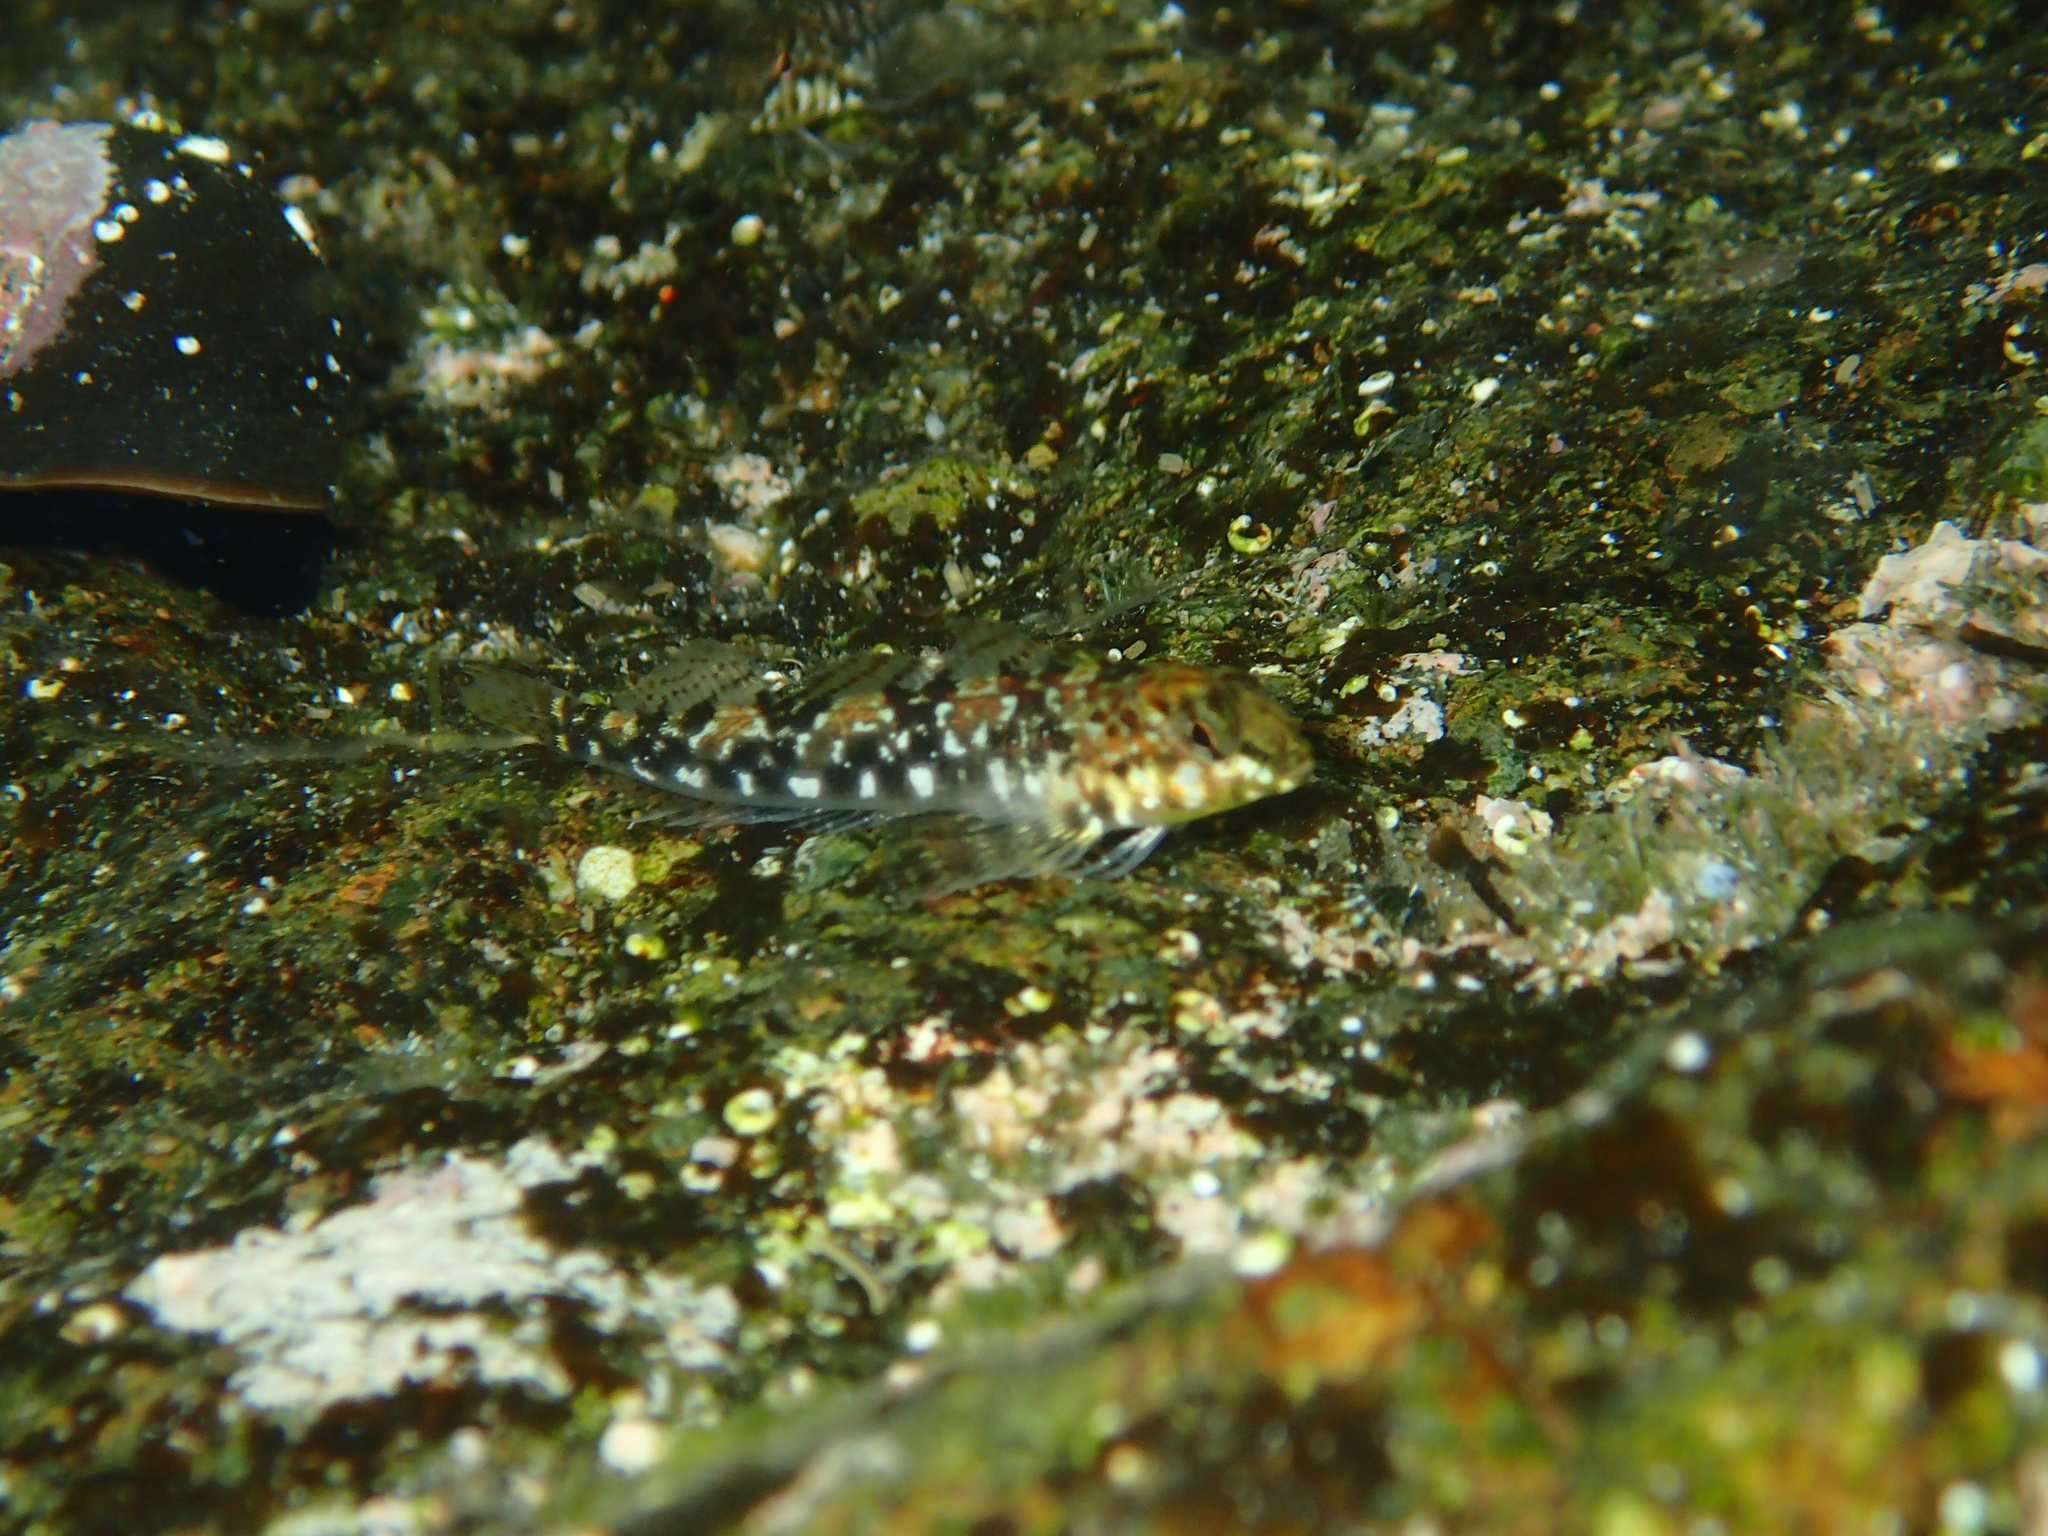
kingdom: Animalia
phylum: Chordata
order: Perciformes
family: Tripterygiidae
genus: Bellapiscis
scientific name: Bellapiscis medius
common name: Twister
